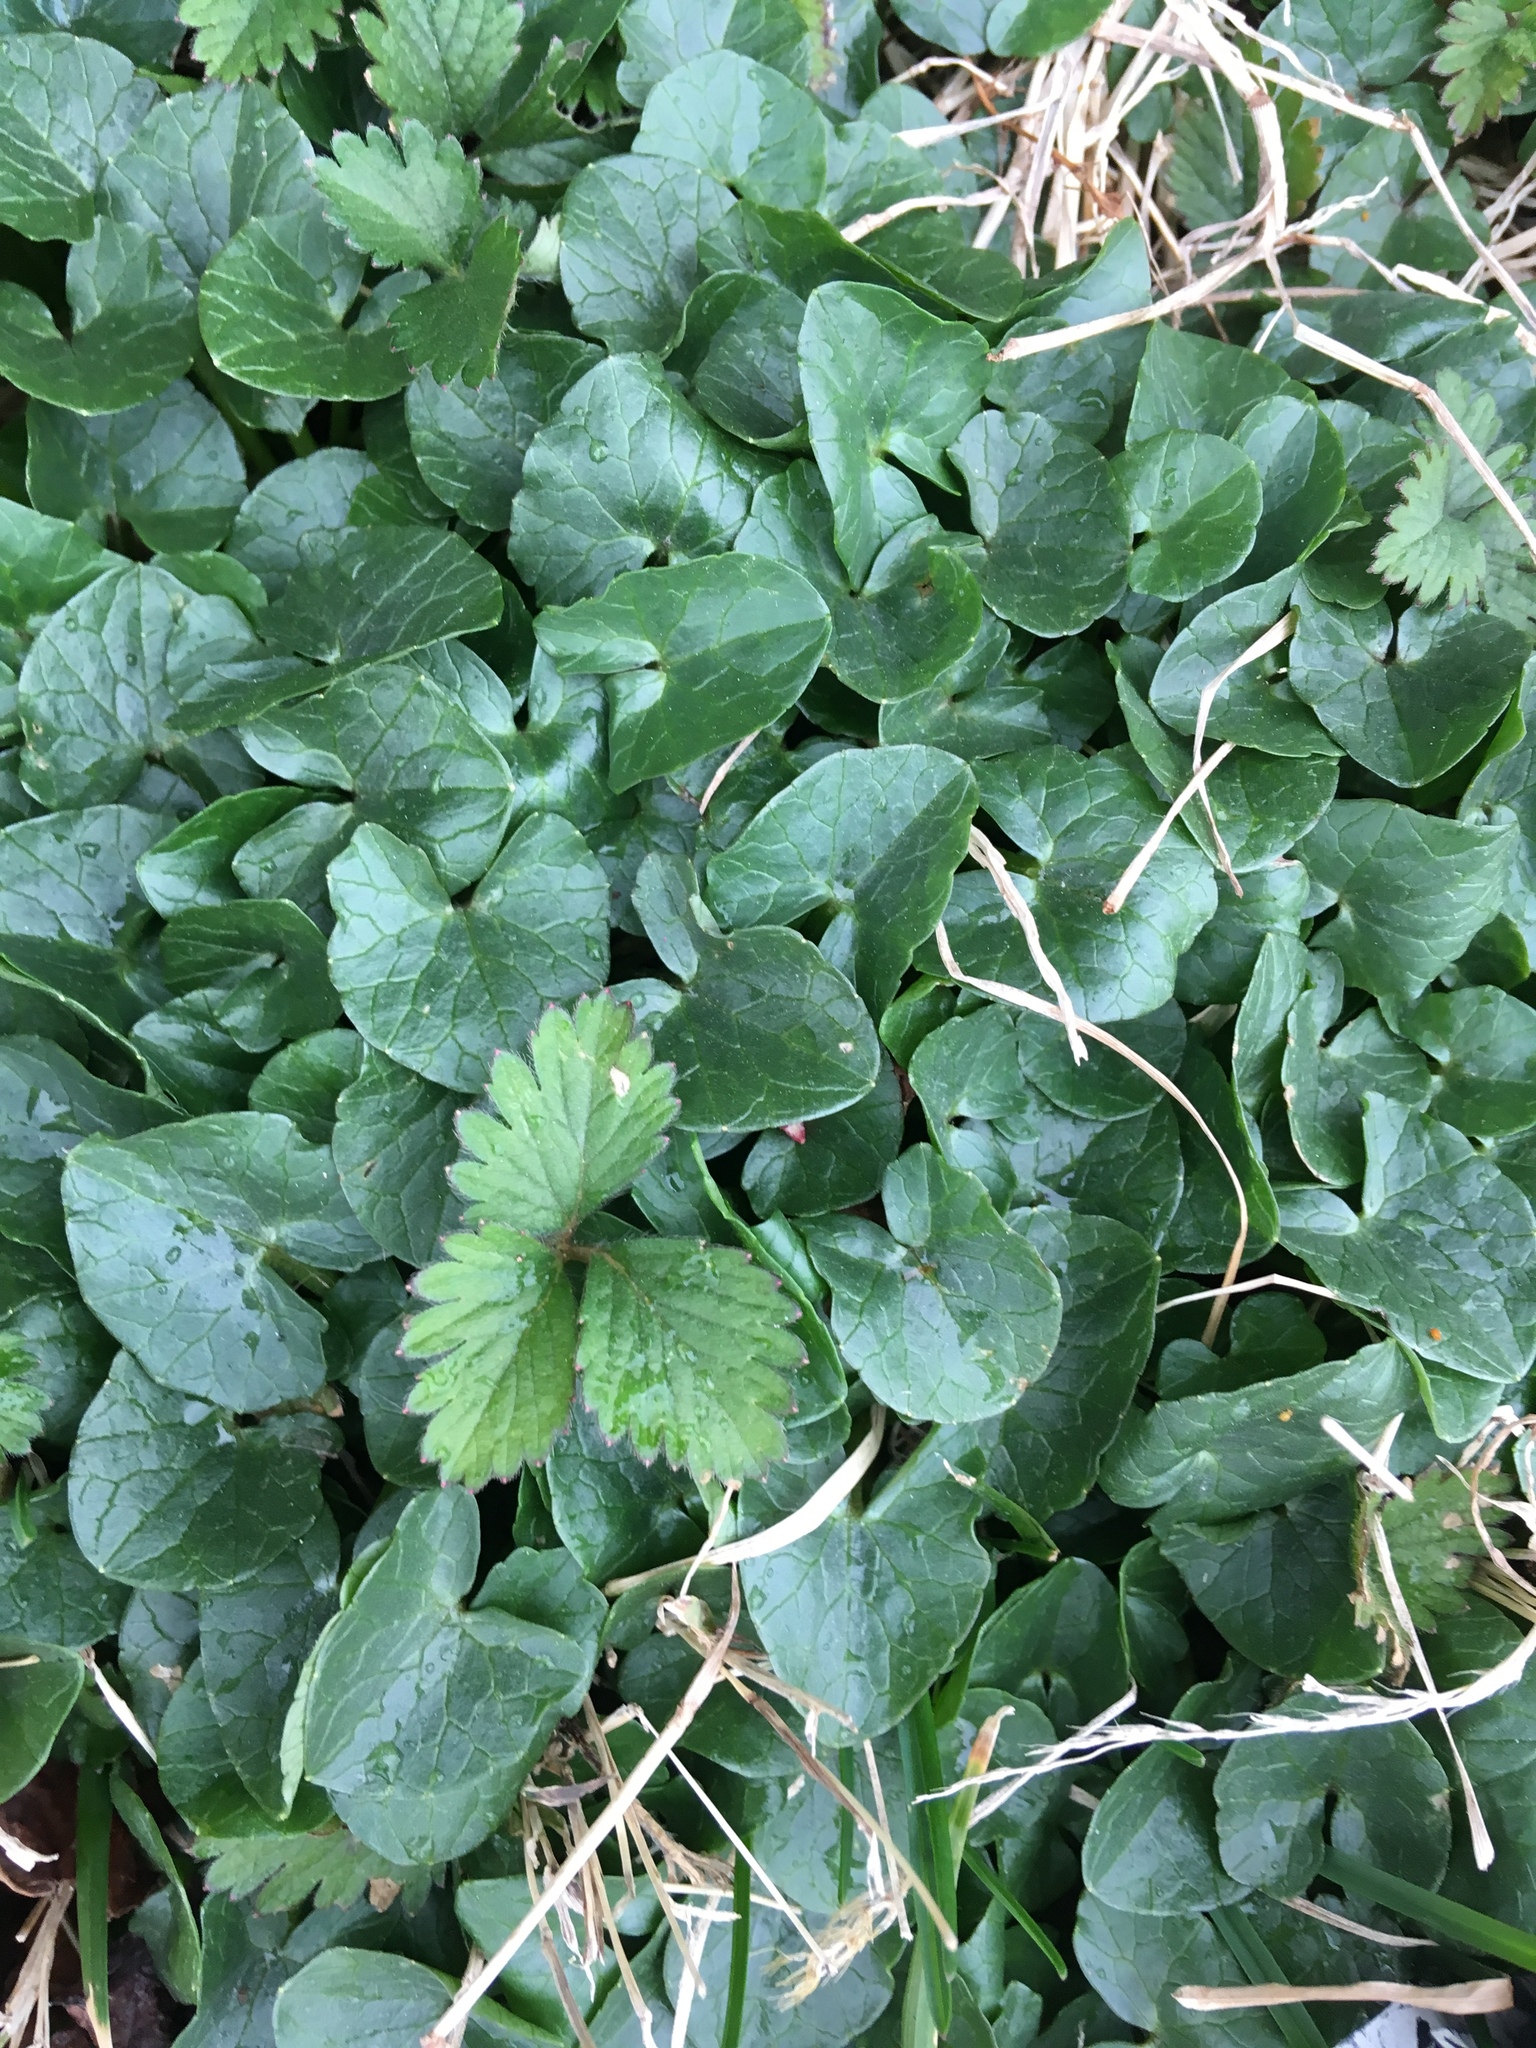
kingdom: Plantae
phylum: Tracheophyta
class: Magnoliopsida
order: Ranunculales
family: Ranunculaceae
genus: Ficaria
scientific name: Ficaria verna
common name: Lesser celandine
